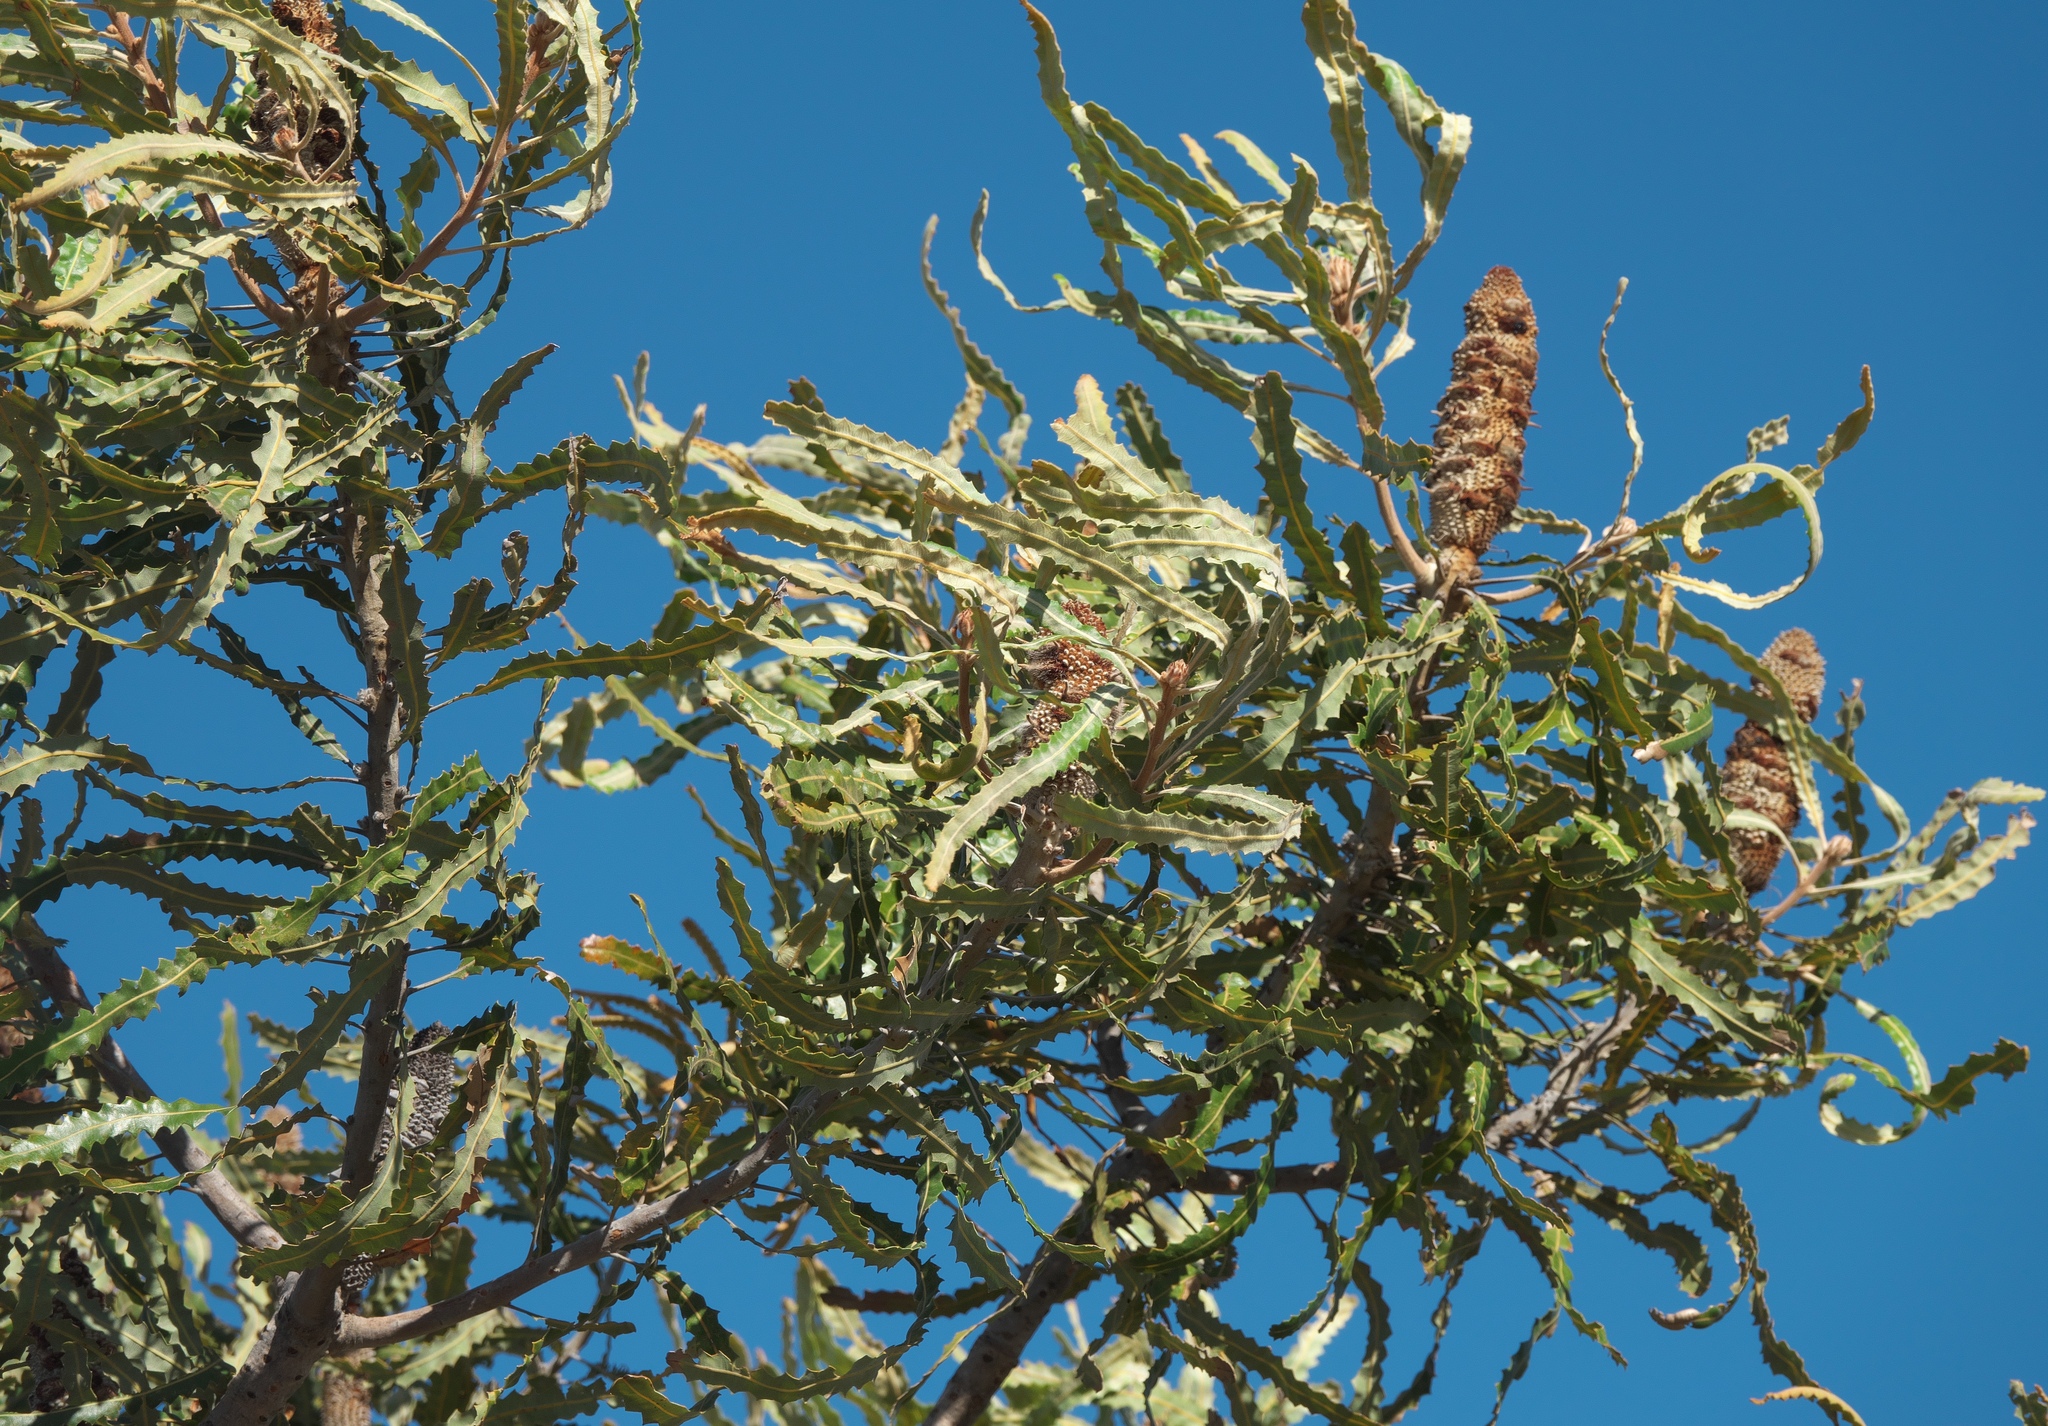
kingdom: Plantae
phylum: Tracheophyta
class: Magnoliopsida
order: Proteales
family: Proteaceae
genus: Banksia
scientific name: Banksia prionotes
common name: Acorn banksia
